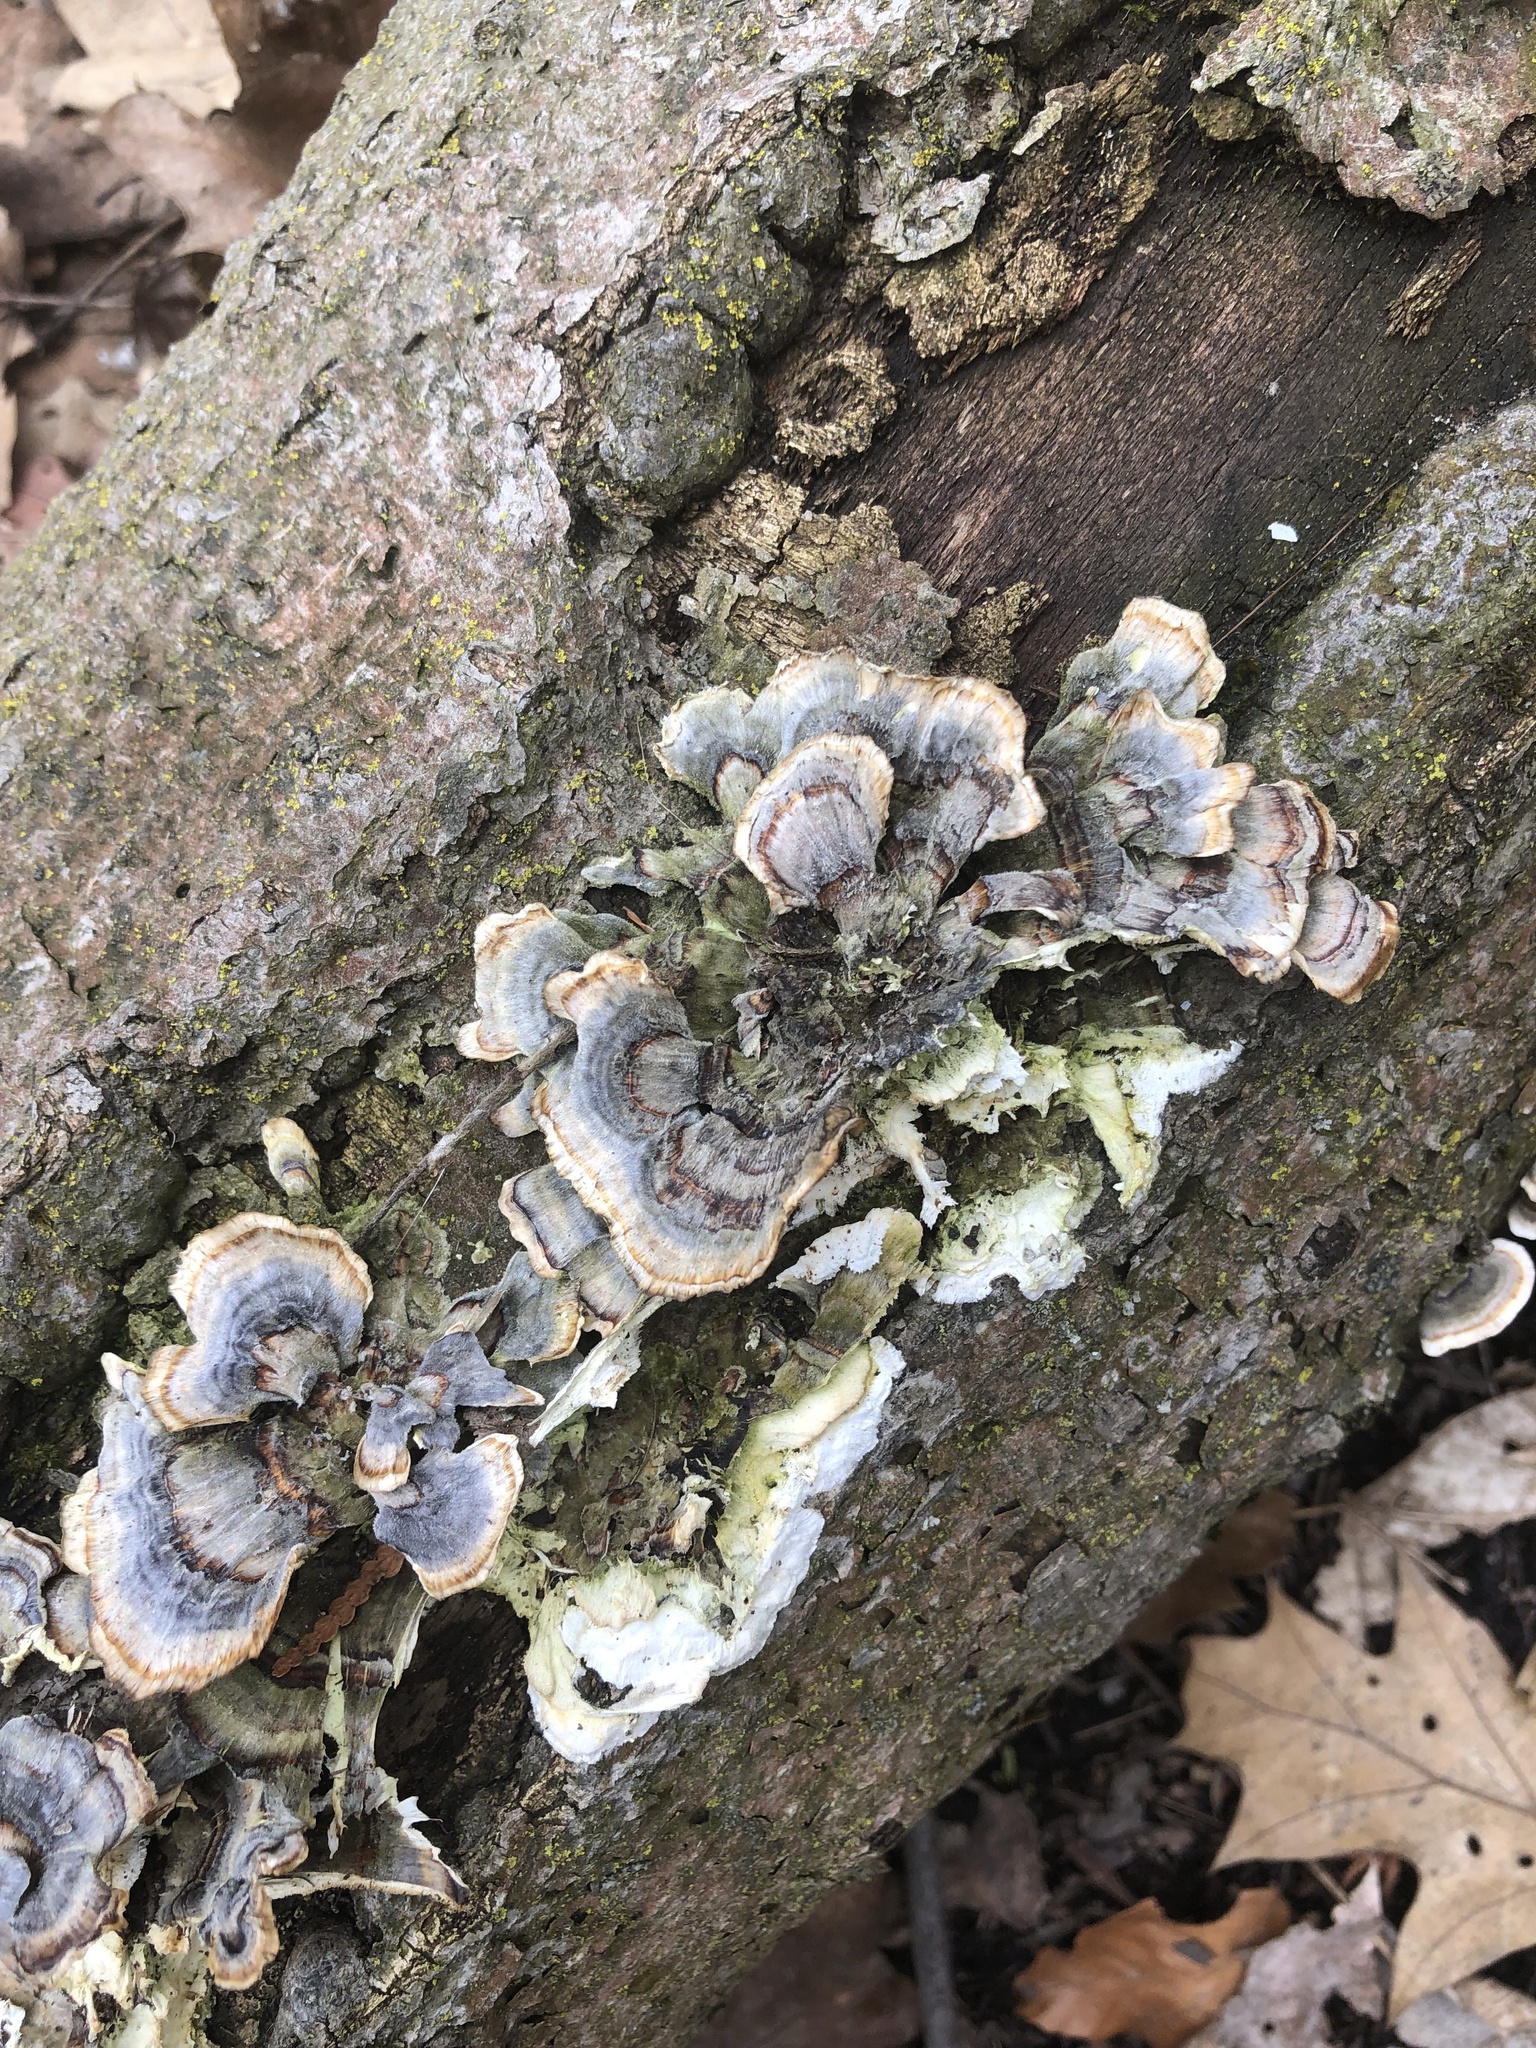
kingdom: Fungi
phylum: Basidiomycota
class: Agaricomycetes
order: Polyporales
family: Polyporaceae
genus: Trametes
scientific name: Trametes versicolor
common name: Turkeytail
